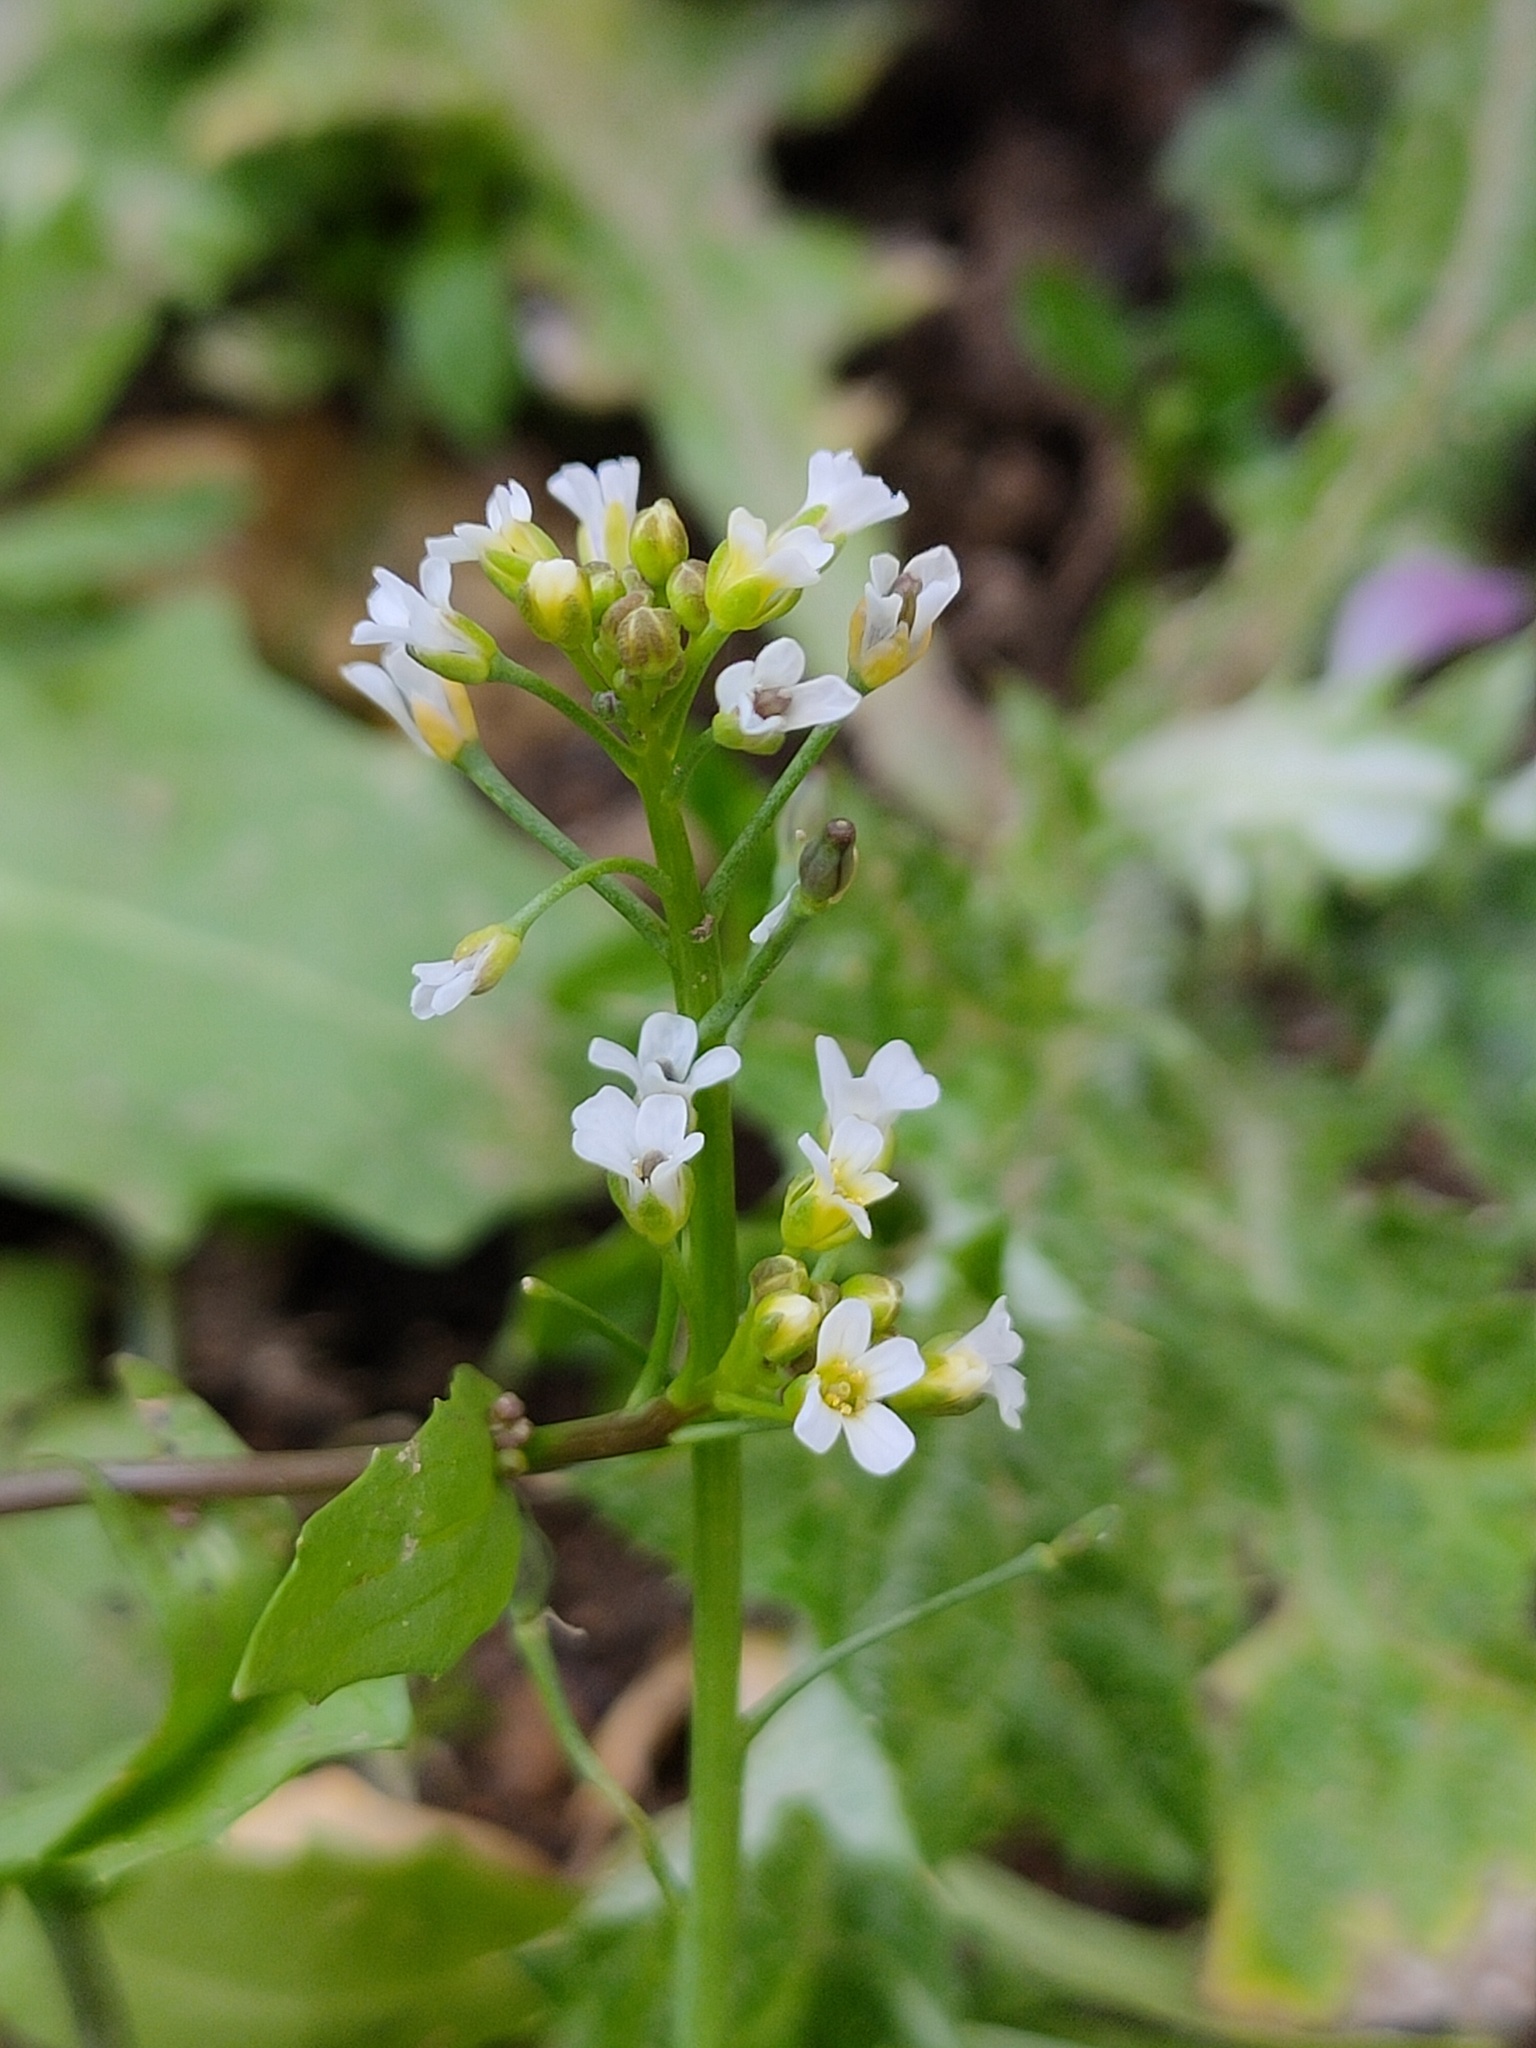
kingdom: Plantae
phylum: Tracheophyta
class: Magnoliopsida
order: Brassicales
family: Brassicaceae
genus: Calepina
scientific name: Calepina irregularis
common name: White ballmustard
